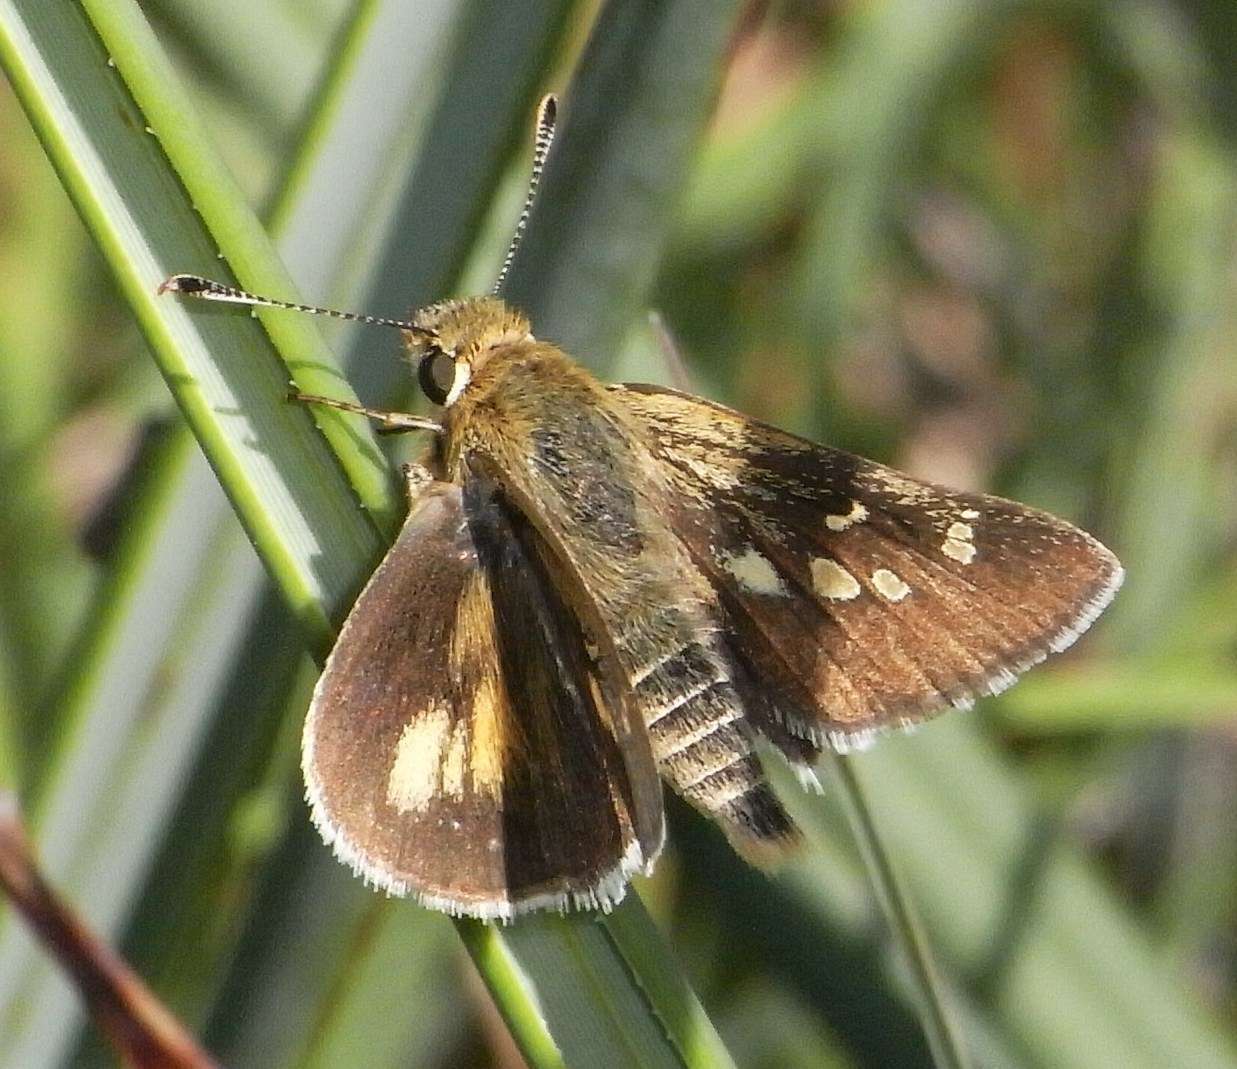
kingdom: Animalia
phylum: Arthropoda
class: Insecta
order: Lepidoptera
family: Hesperiidae
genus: Trapezites
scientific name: Trapezites lutea
